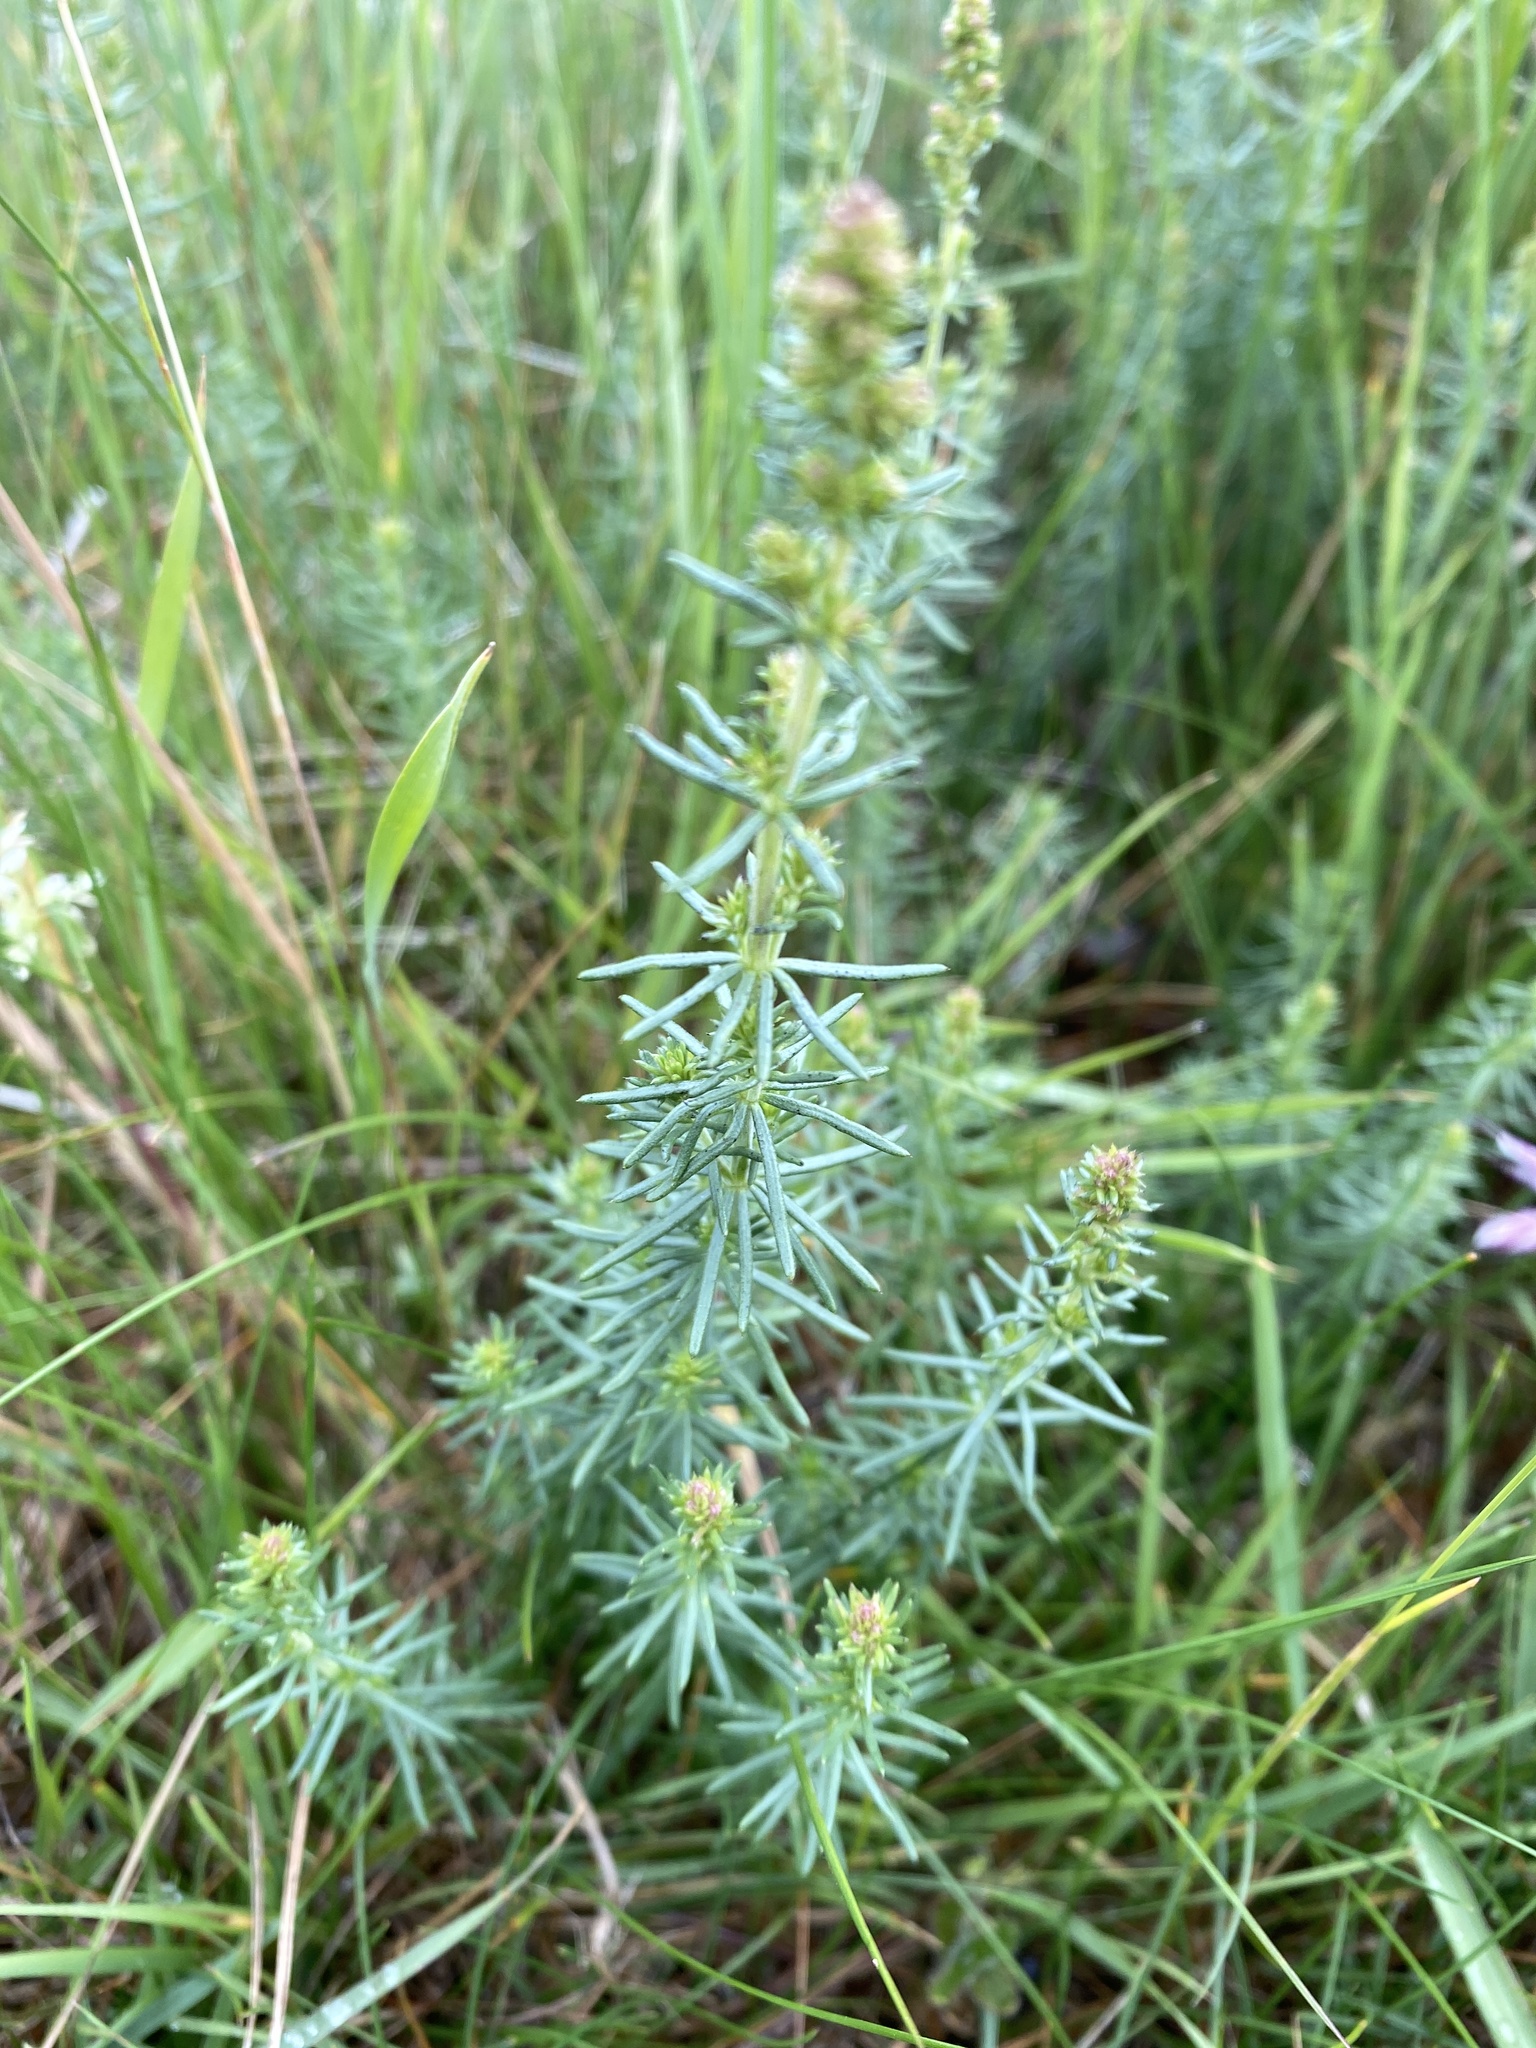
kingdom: Plantae
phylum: Tracheophyta
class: Magnoliopsida
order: Gentianales
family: Rubiaceae
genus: Galium
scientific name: Galium verum
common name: Lady's bedstraw
